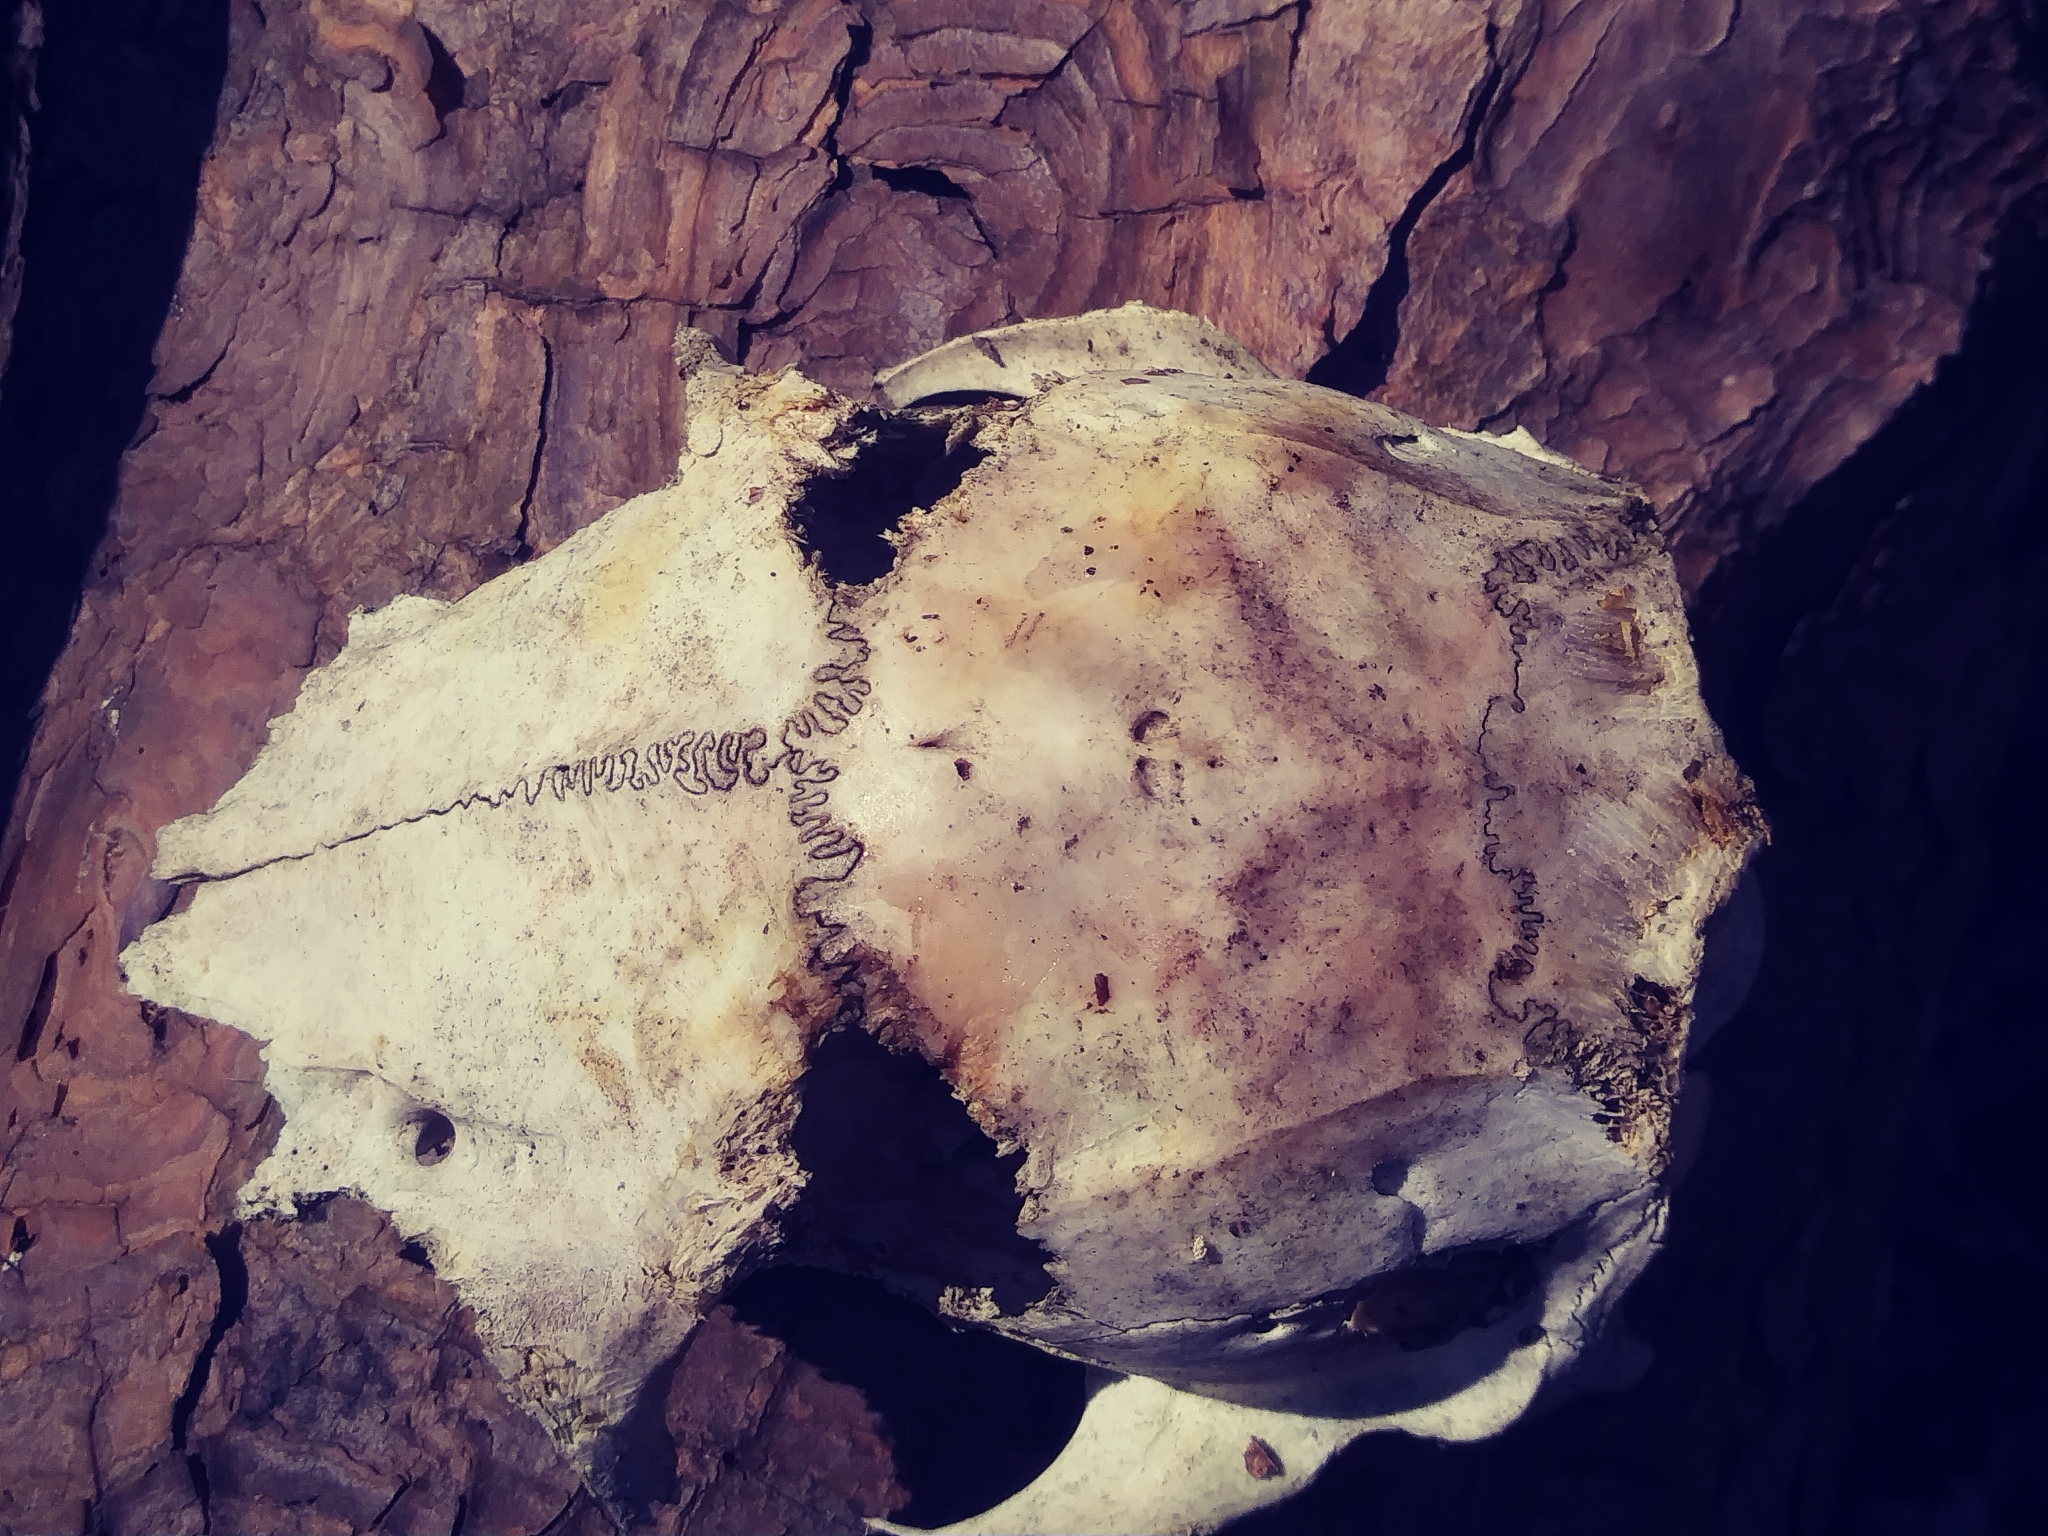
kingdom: Animalia
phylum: Chordata
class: Mammalia
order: Artiodactyla
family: Cervidae
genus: Odocoileus
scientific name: Odocoileus virginianus
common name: White-tailed deer
